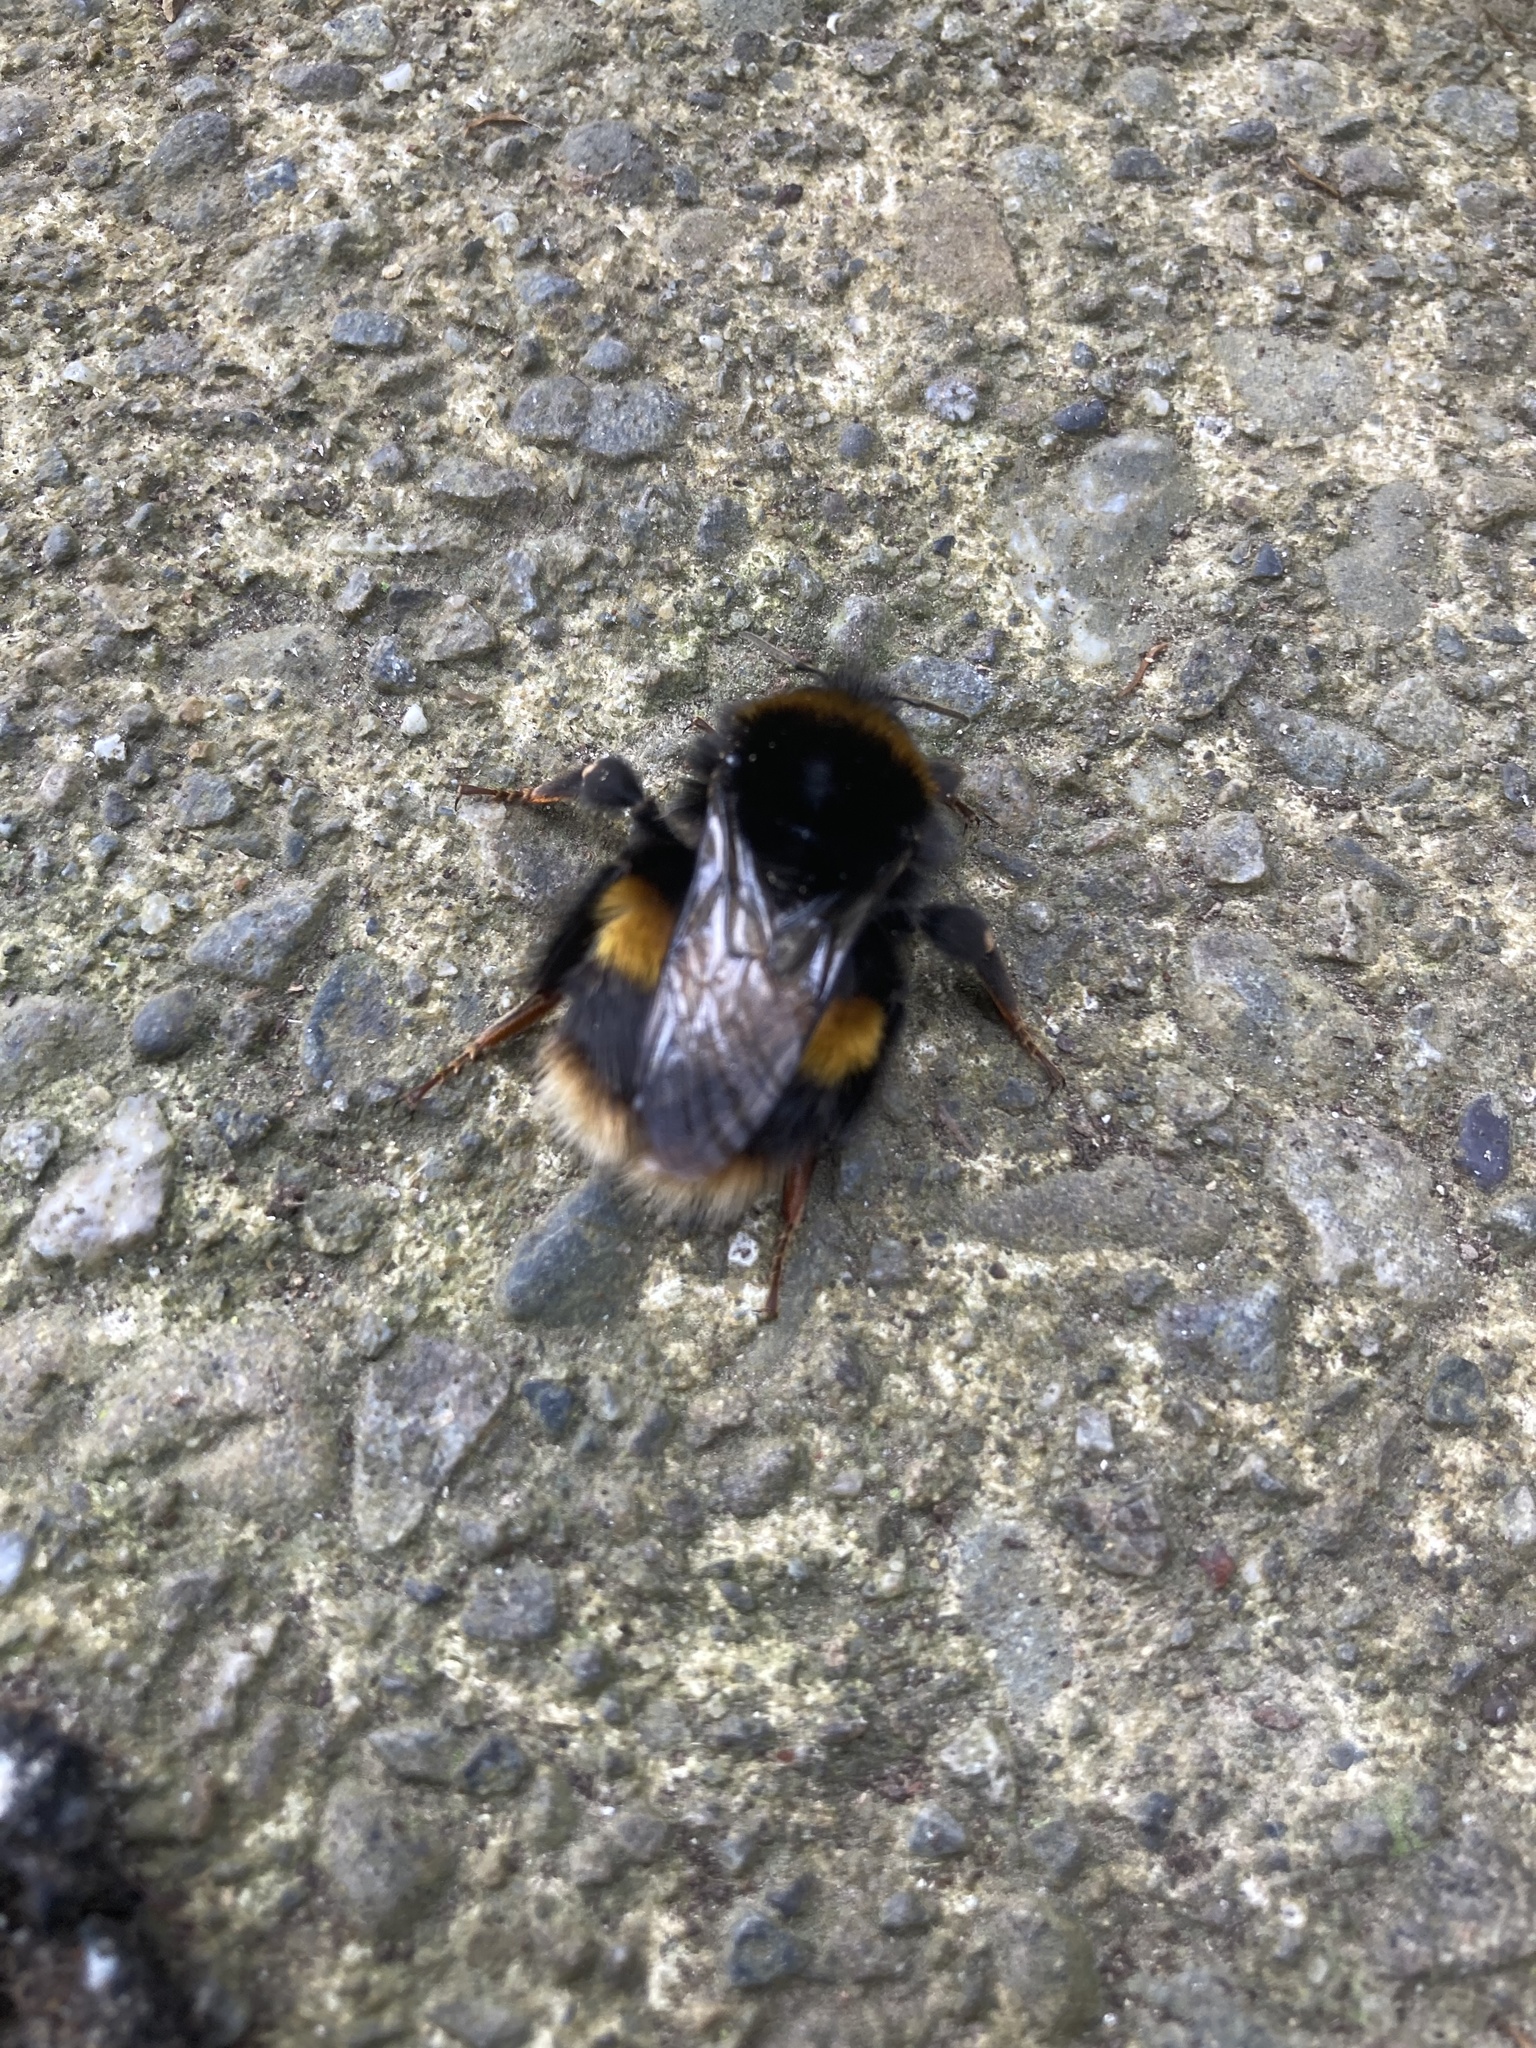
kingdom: Animalia
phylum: Arthropoda
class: Insecta
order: Hymenoptera
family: Apidae
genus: Bombus
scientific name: Bombus terrestris
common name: Buff-tailed bumblebee
